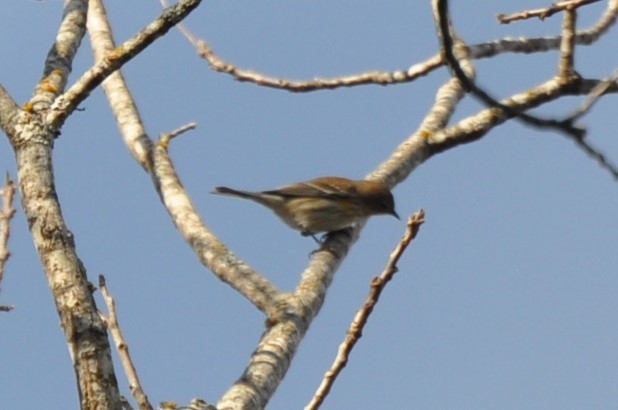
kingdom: Animalia
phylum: Chordata
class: Aves
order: Passeriformes
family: Parulidae
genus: Setophaga
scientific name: Setophaga coronata
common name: Myrtle warbler
